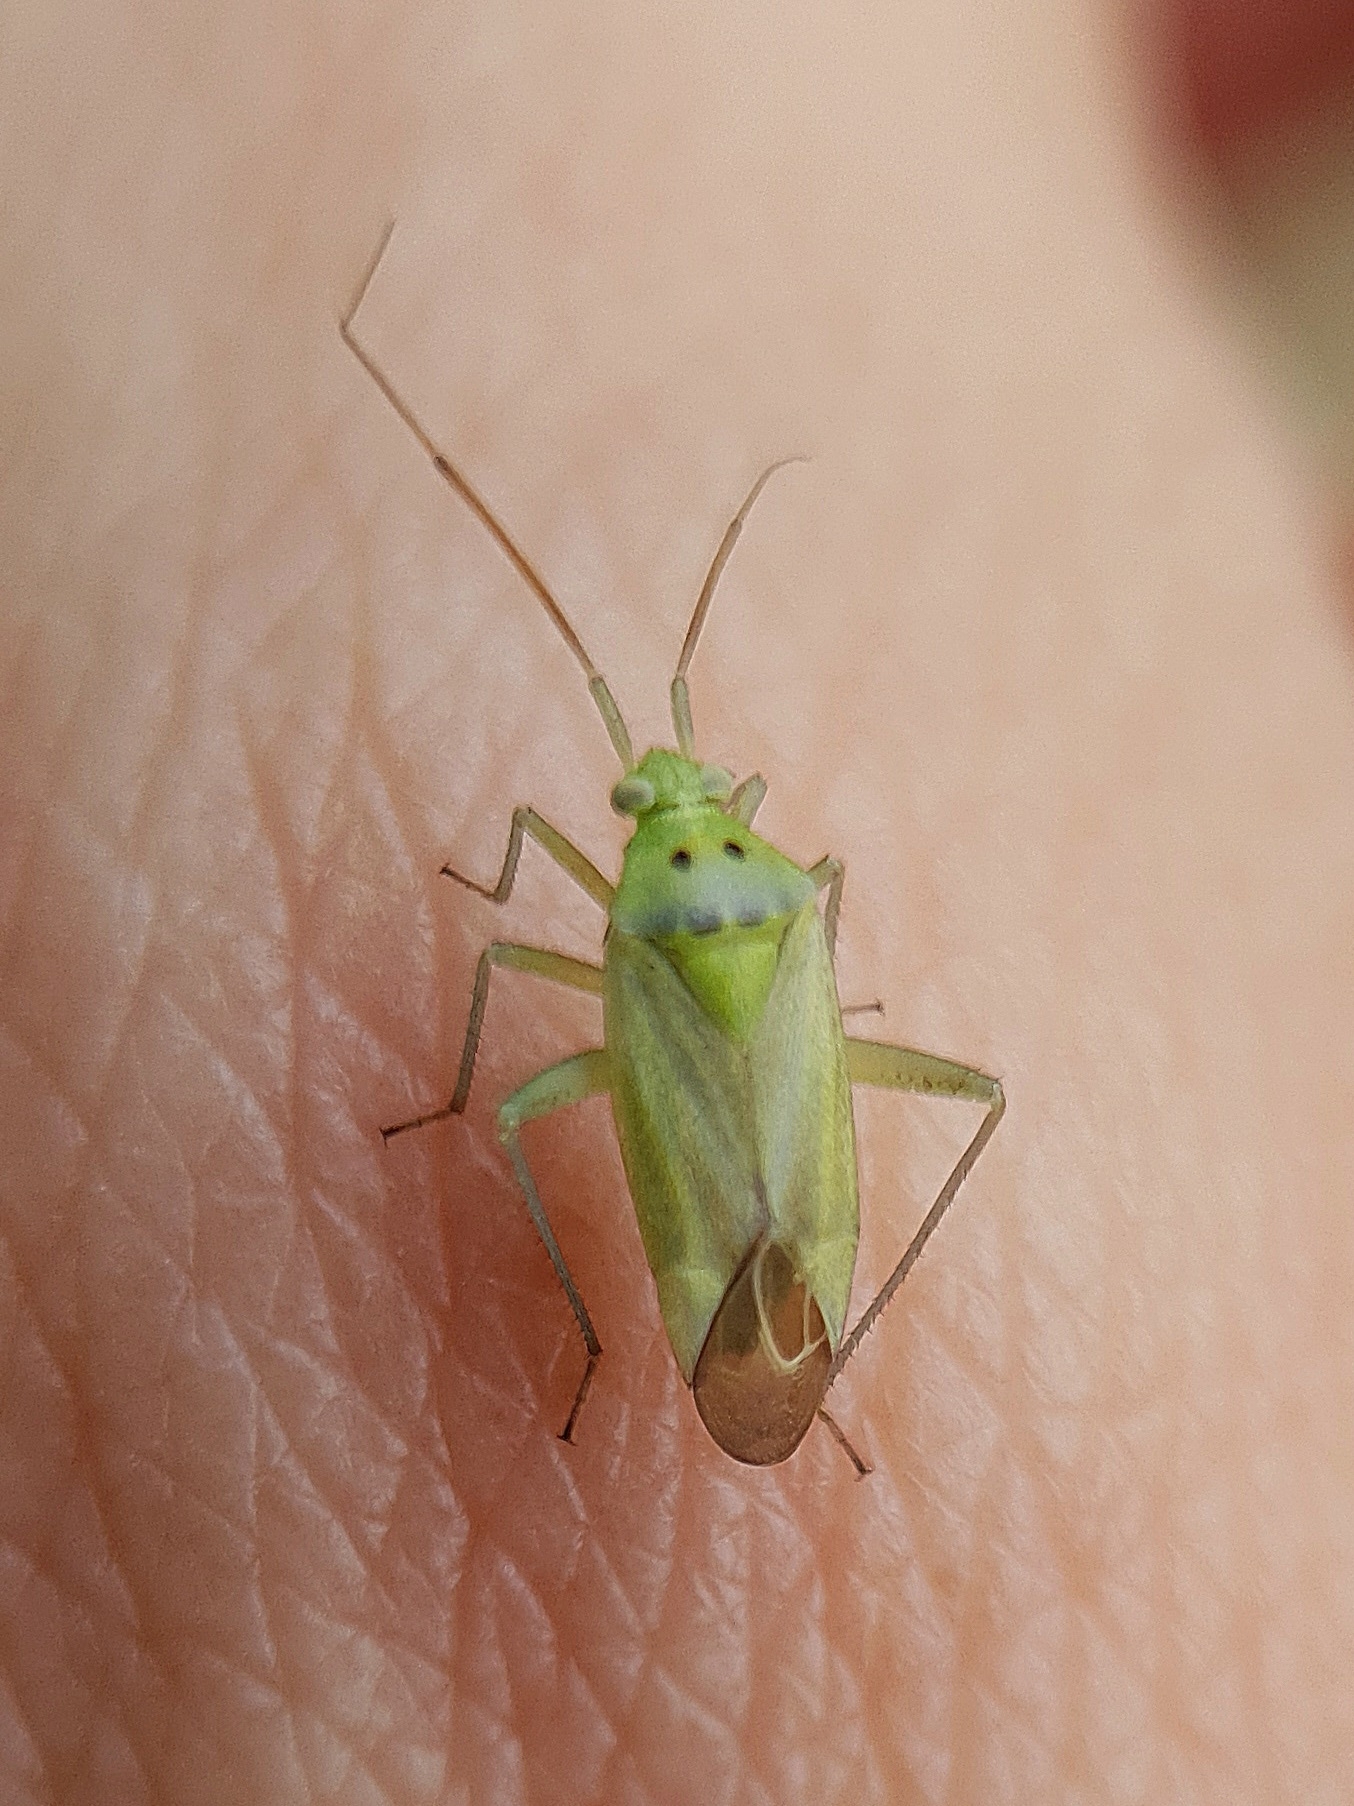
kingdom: Animalia
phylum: Arthropoda
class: Insecta
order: Hemiptera
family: Miridae
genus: Closterotomus
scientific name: Closterotomus norvegicus
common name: Plant bug
